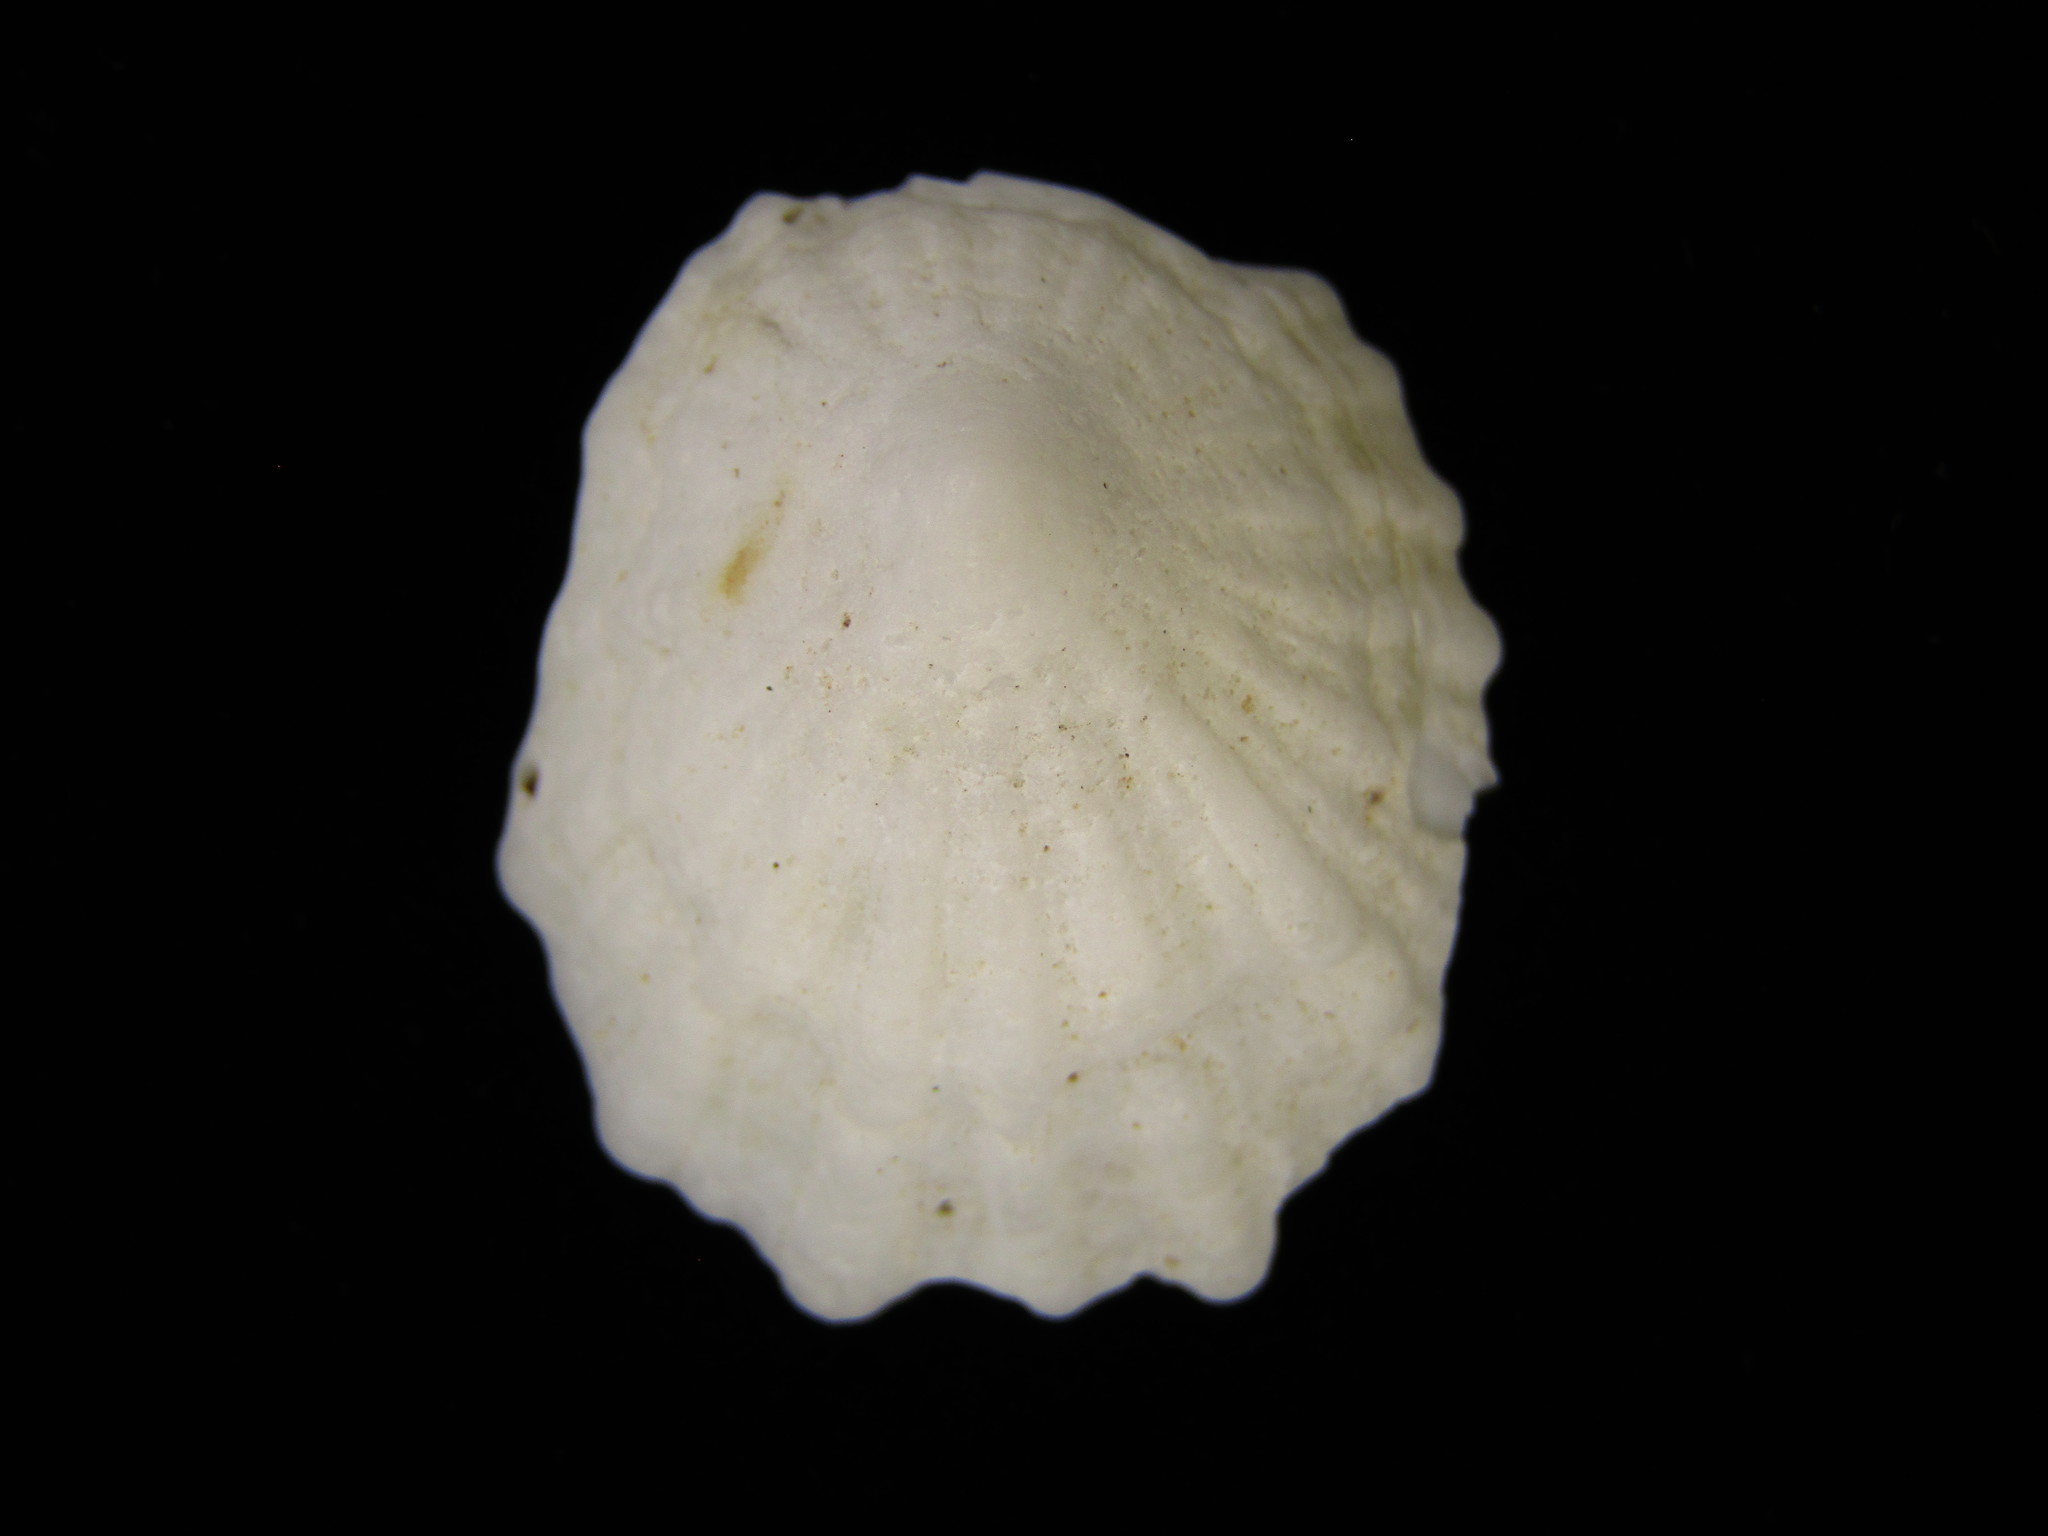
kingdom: Animalia
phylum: Mollusca
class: Gastropoda
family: Lottiidae
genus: Niveotectura
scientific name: Niveotectura pallida
